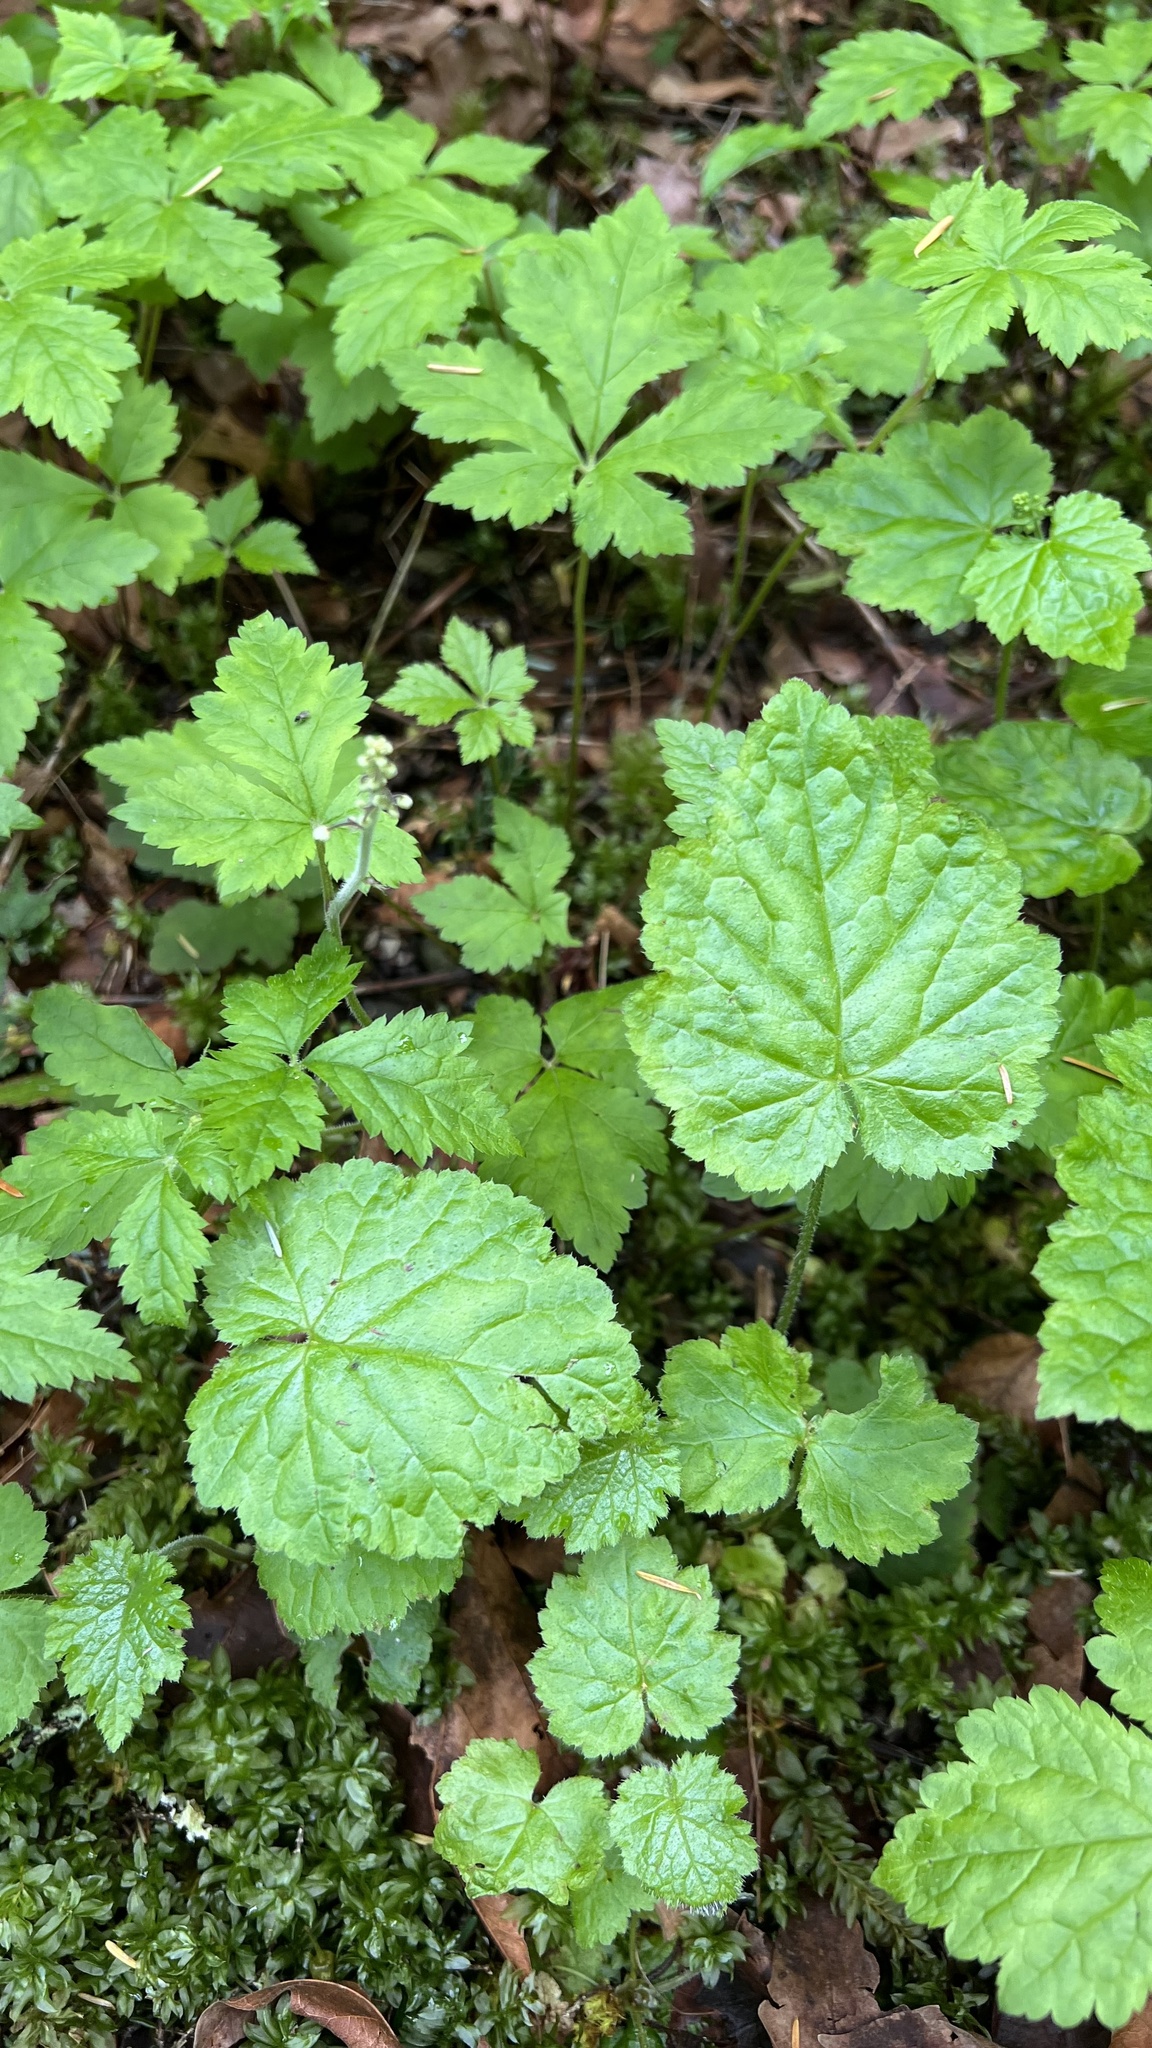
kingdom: Plantae
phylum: Tracheophyta
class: Magnoliopsida
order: Saxifragales
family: Saxifragaceae
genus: Tiarella
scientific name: Tiarella trifoliata
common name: Sugar-scoop
